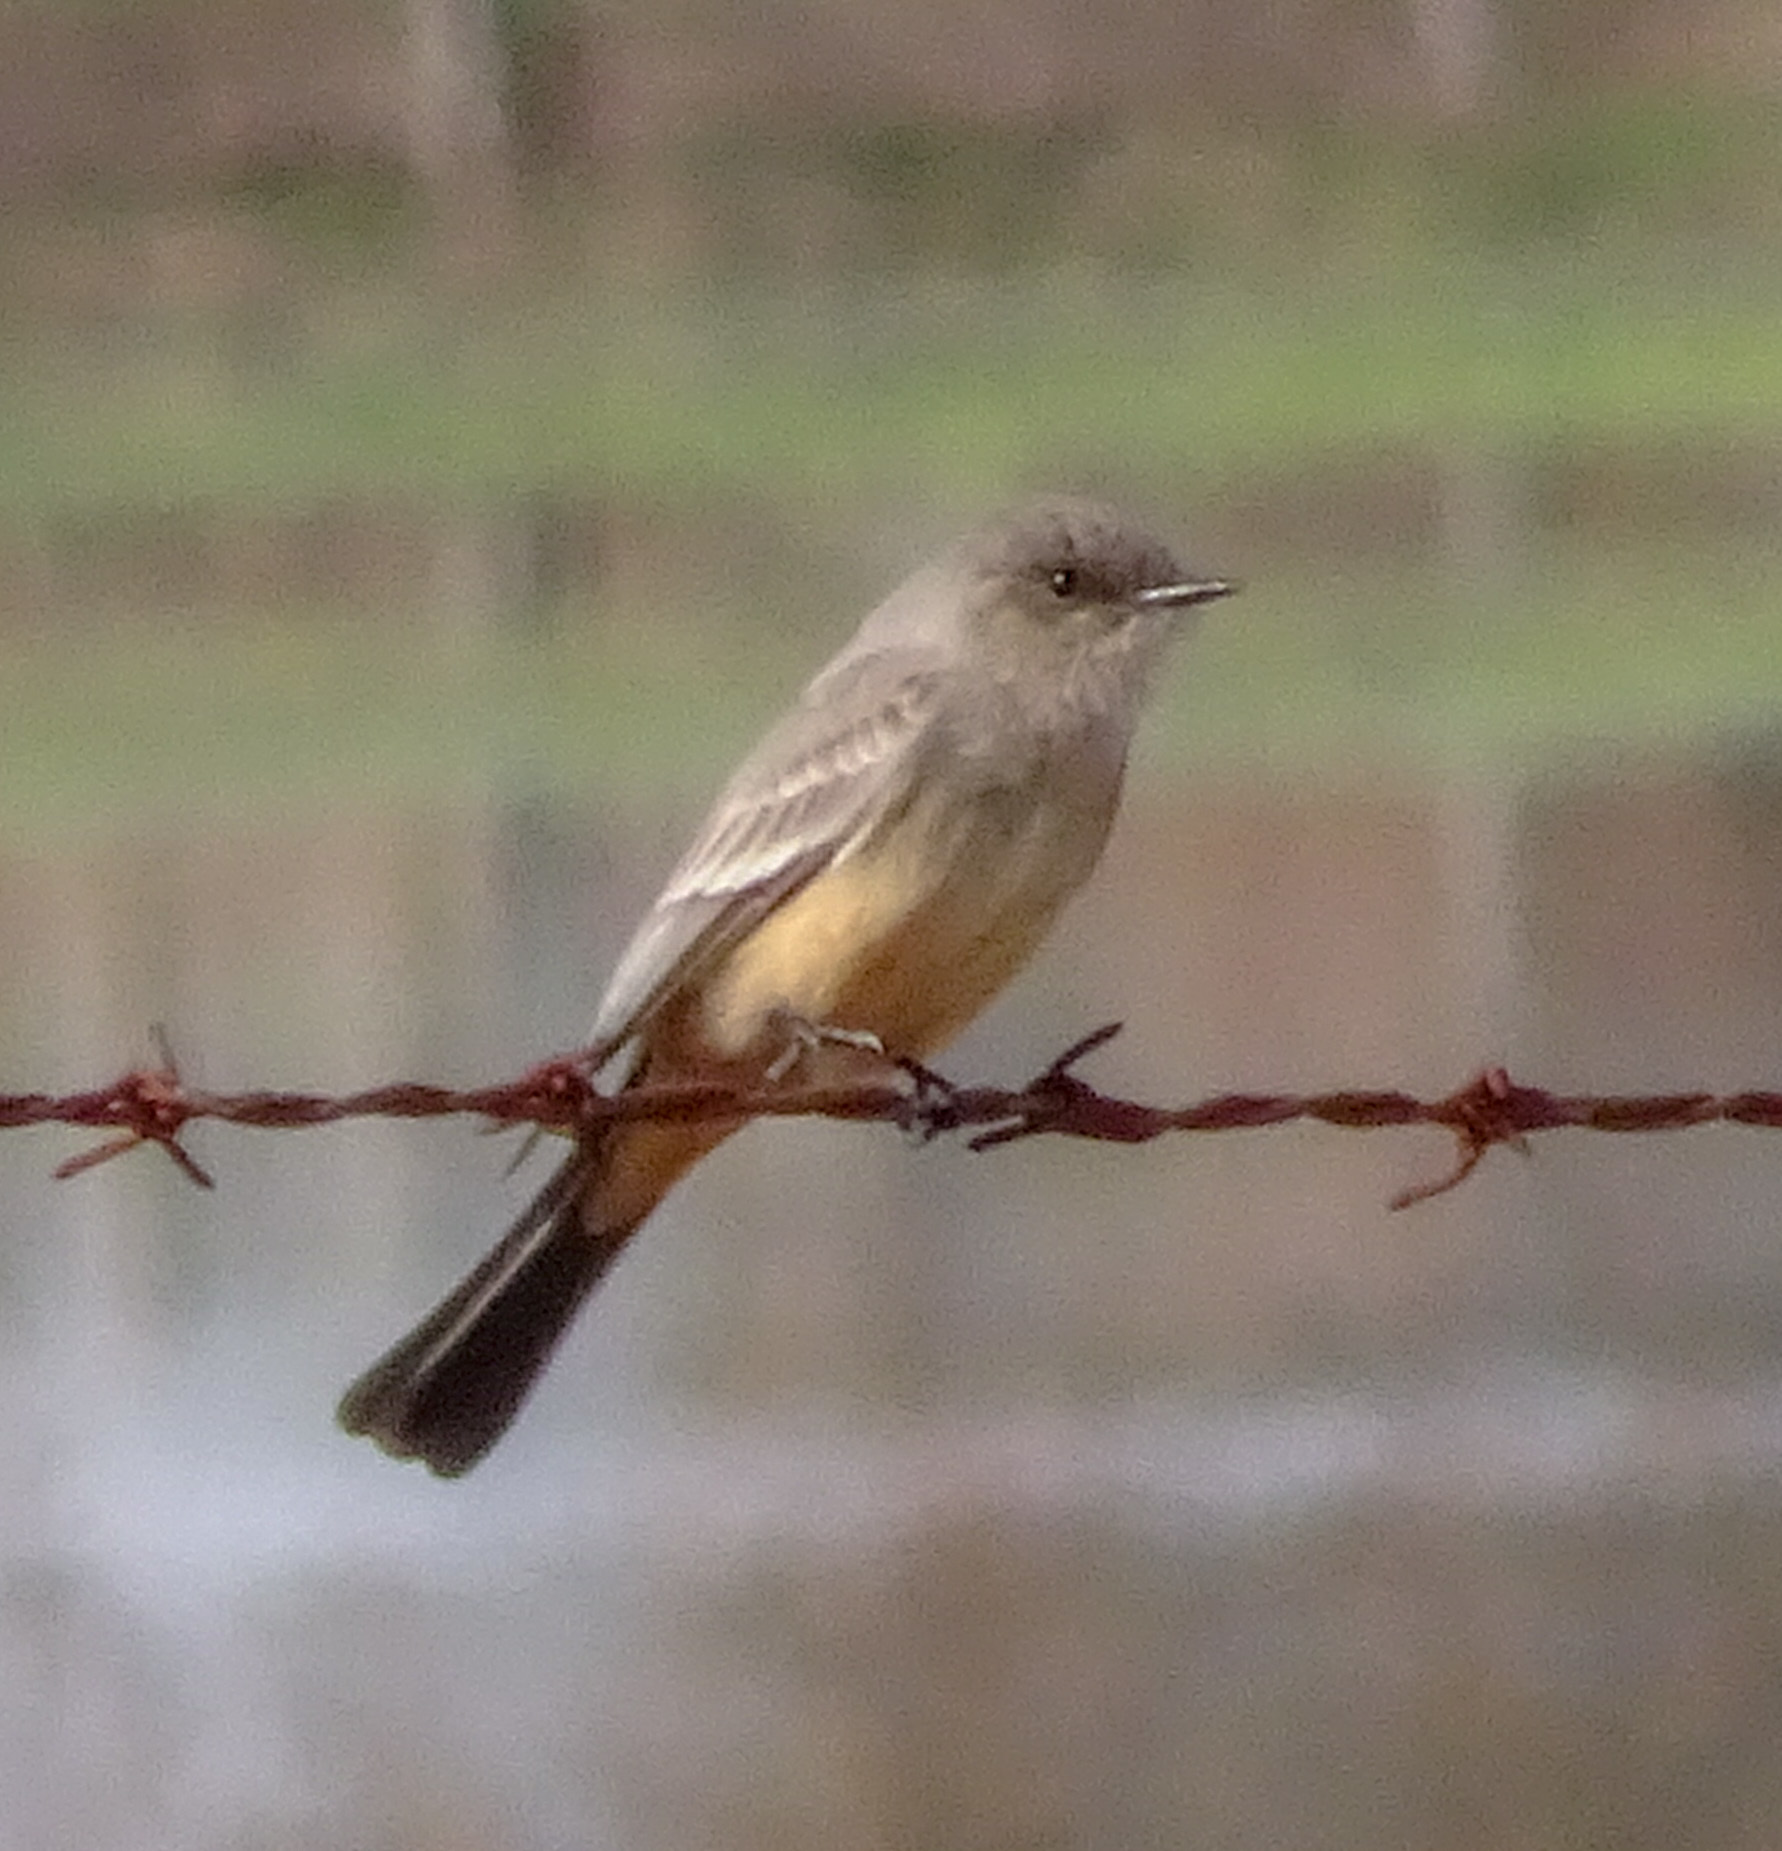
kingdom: Animalia
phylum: Chordata
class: Aves
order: Passeriformes
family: Tyrannidae
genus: Sayornis
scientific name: Sayornis saya
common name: Say's phoebe
